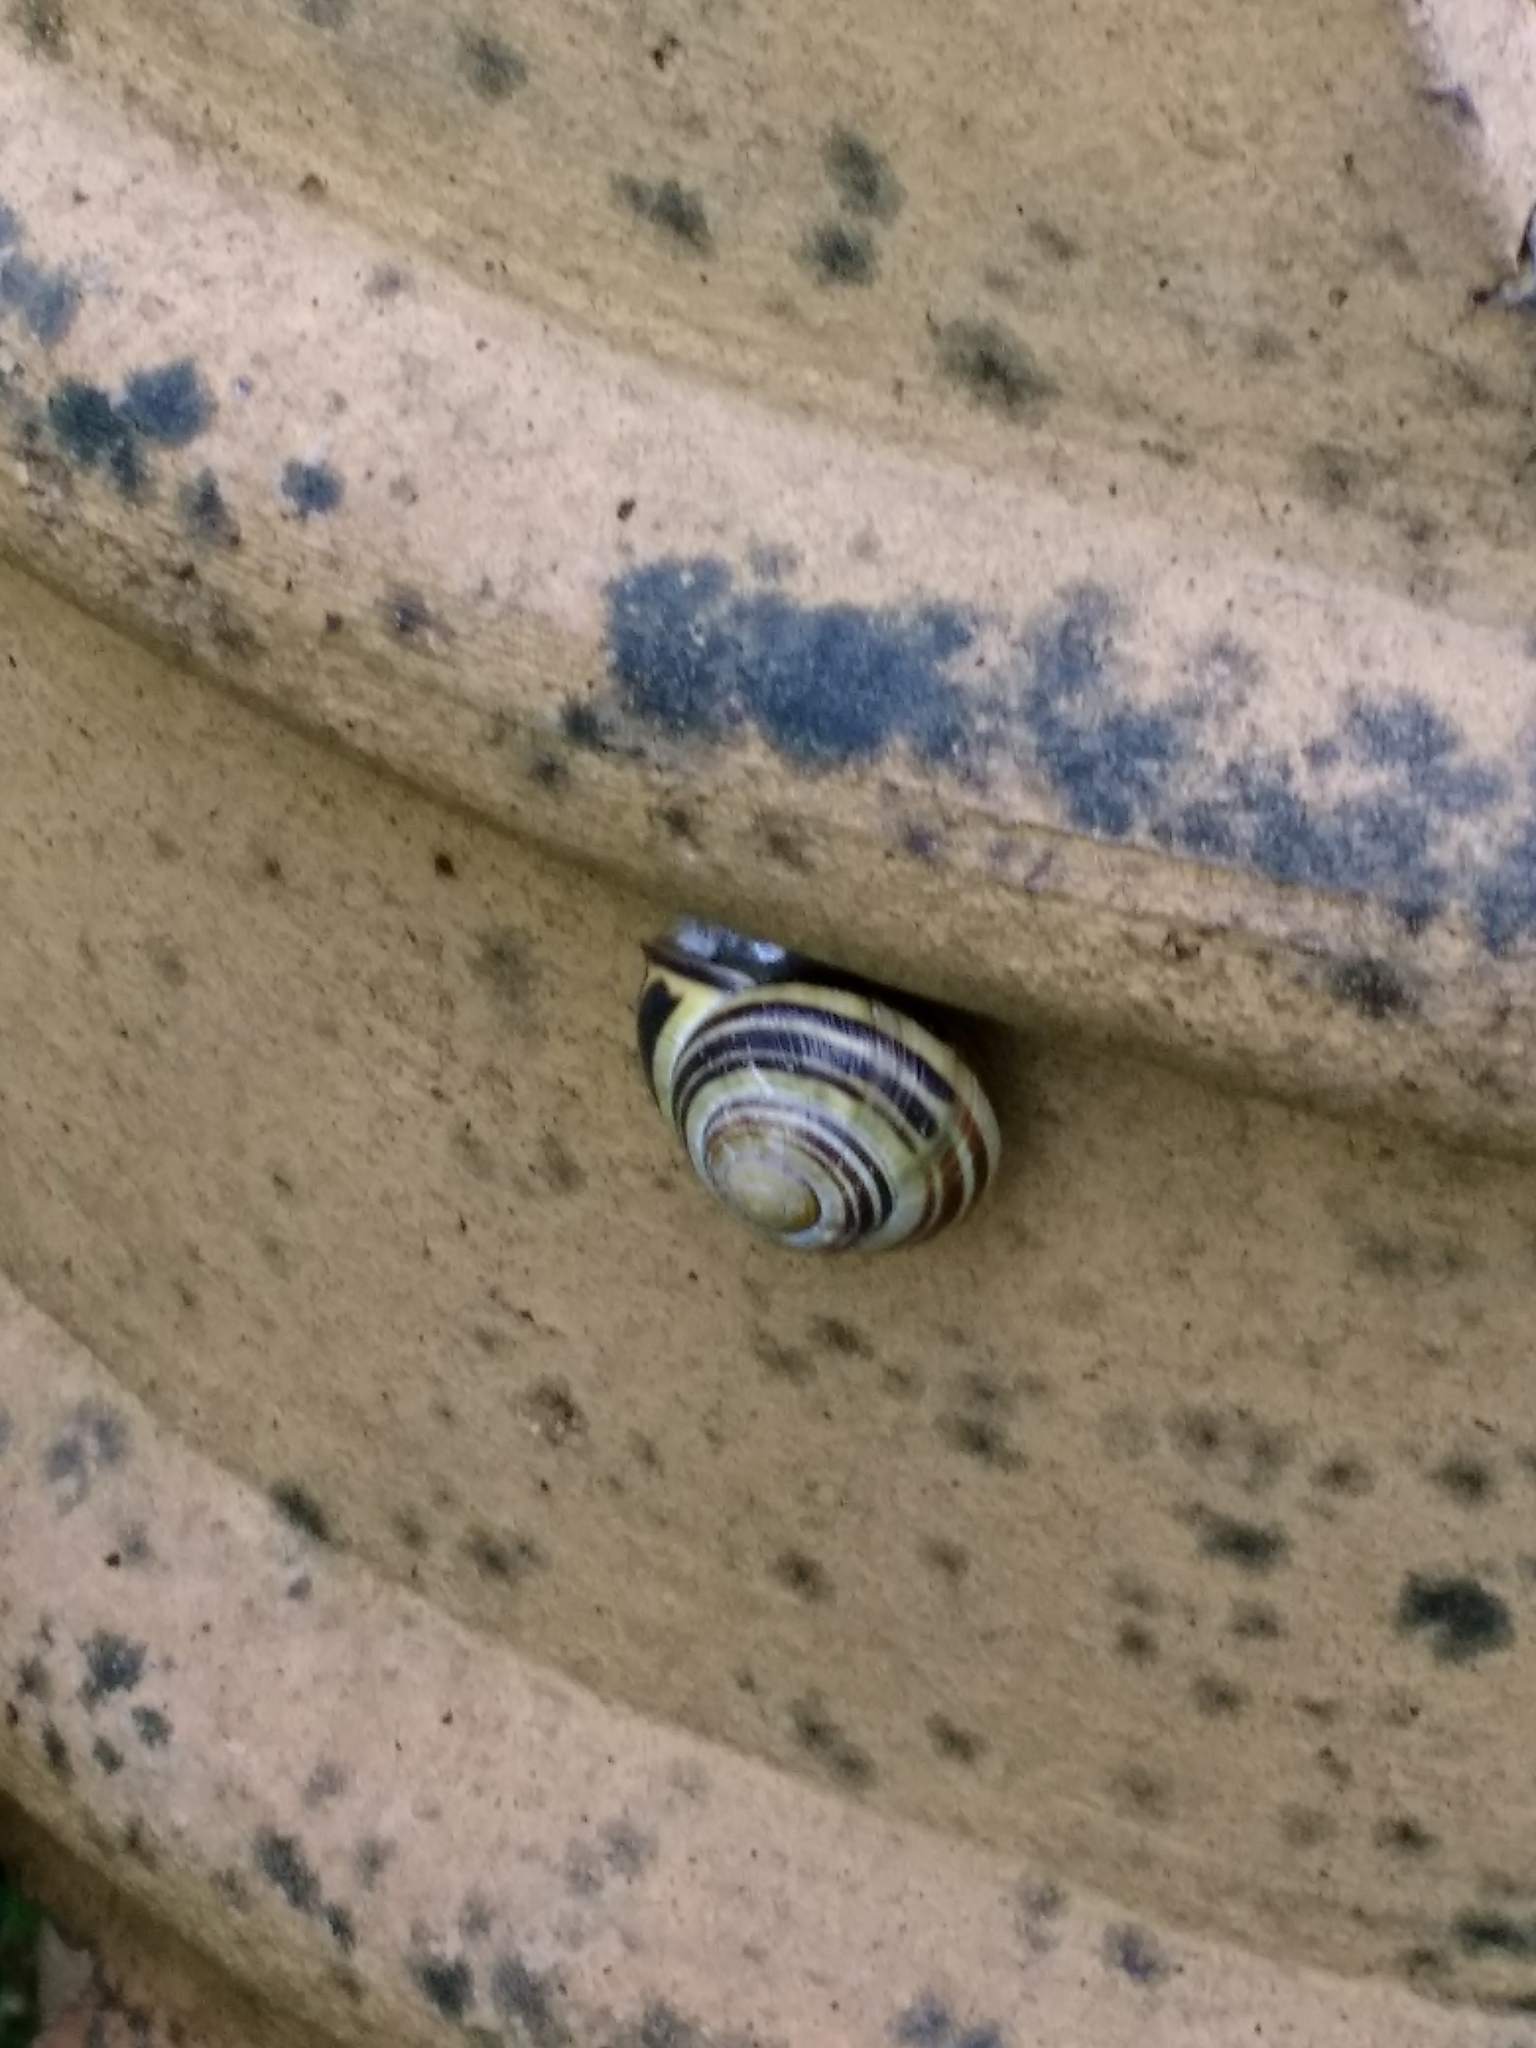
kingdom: Animalia
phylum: Mollusca
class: Gastropoda
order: Stylommatophora
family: Helicidae
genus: Cepaea
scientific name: Cepaea nemoralis
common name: Grovesnail
